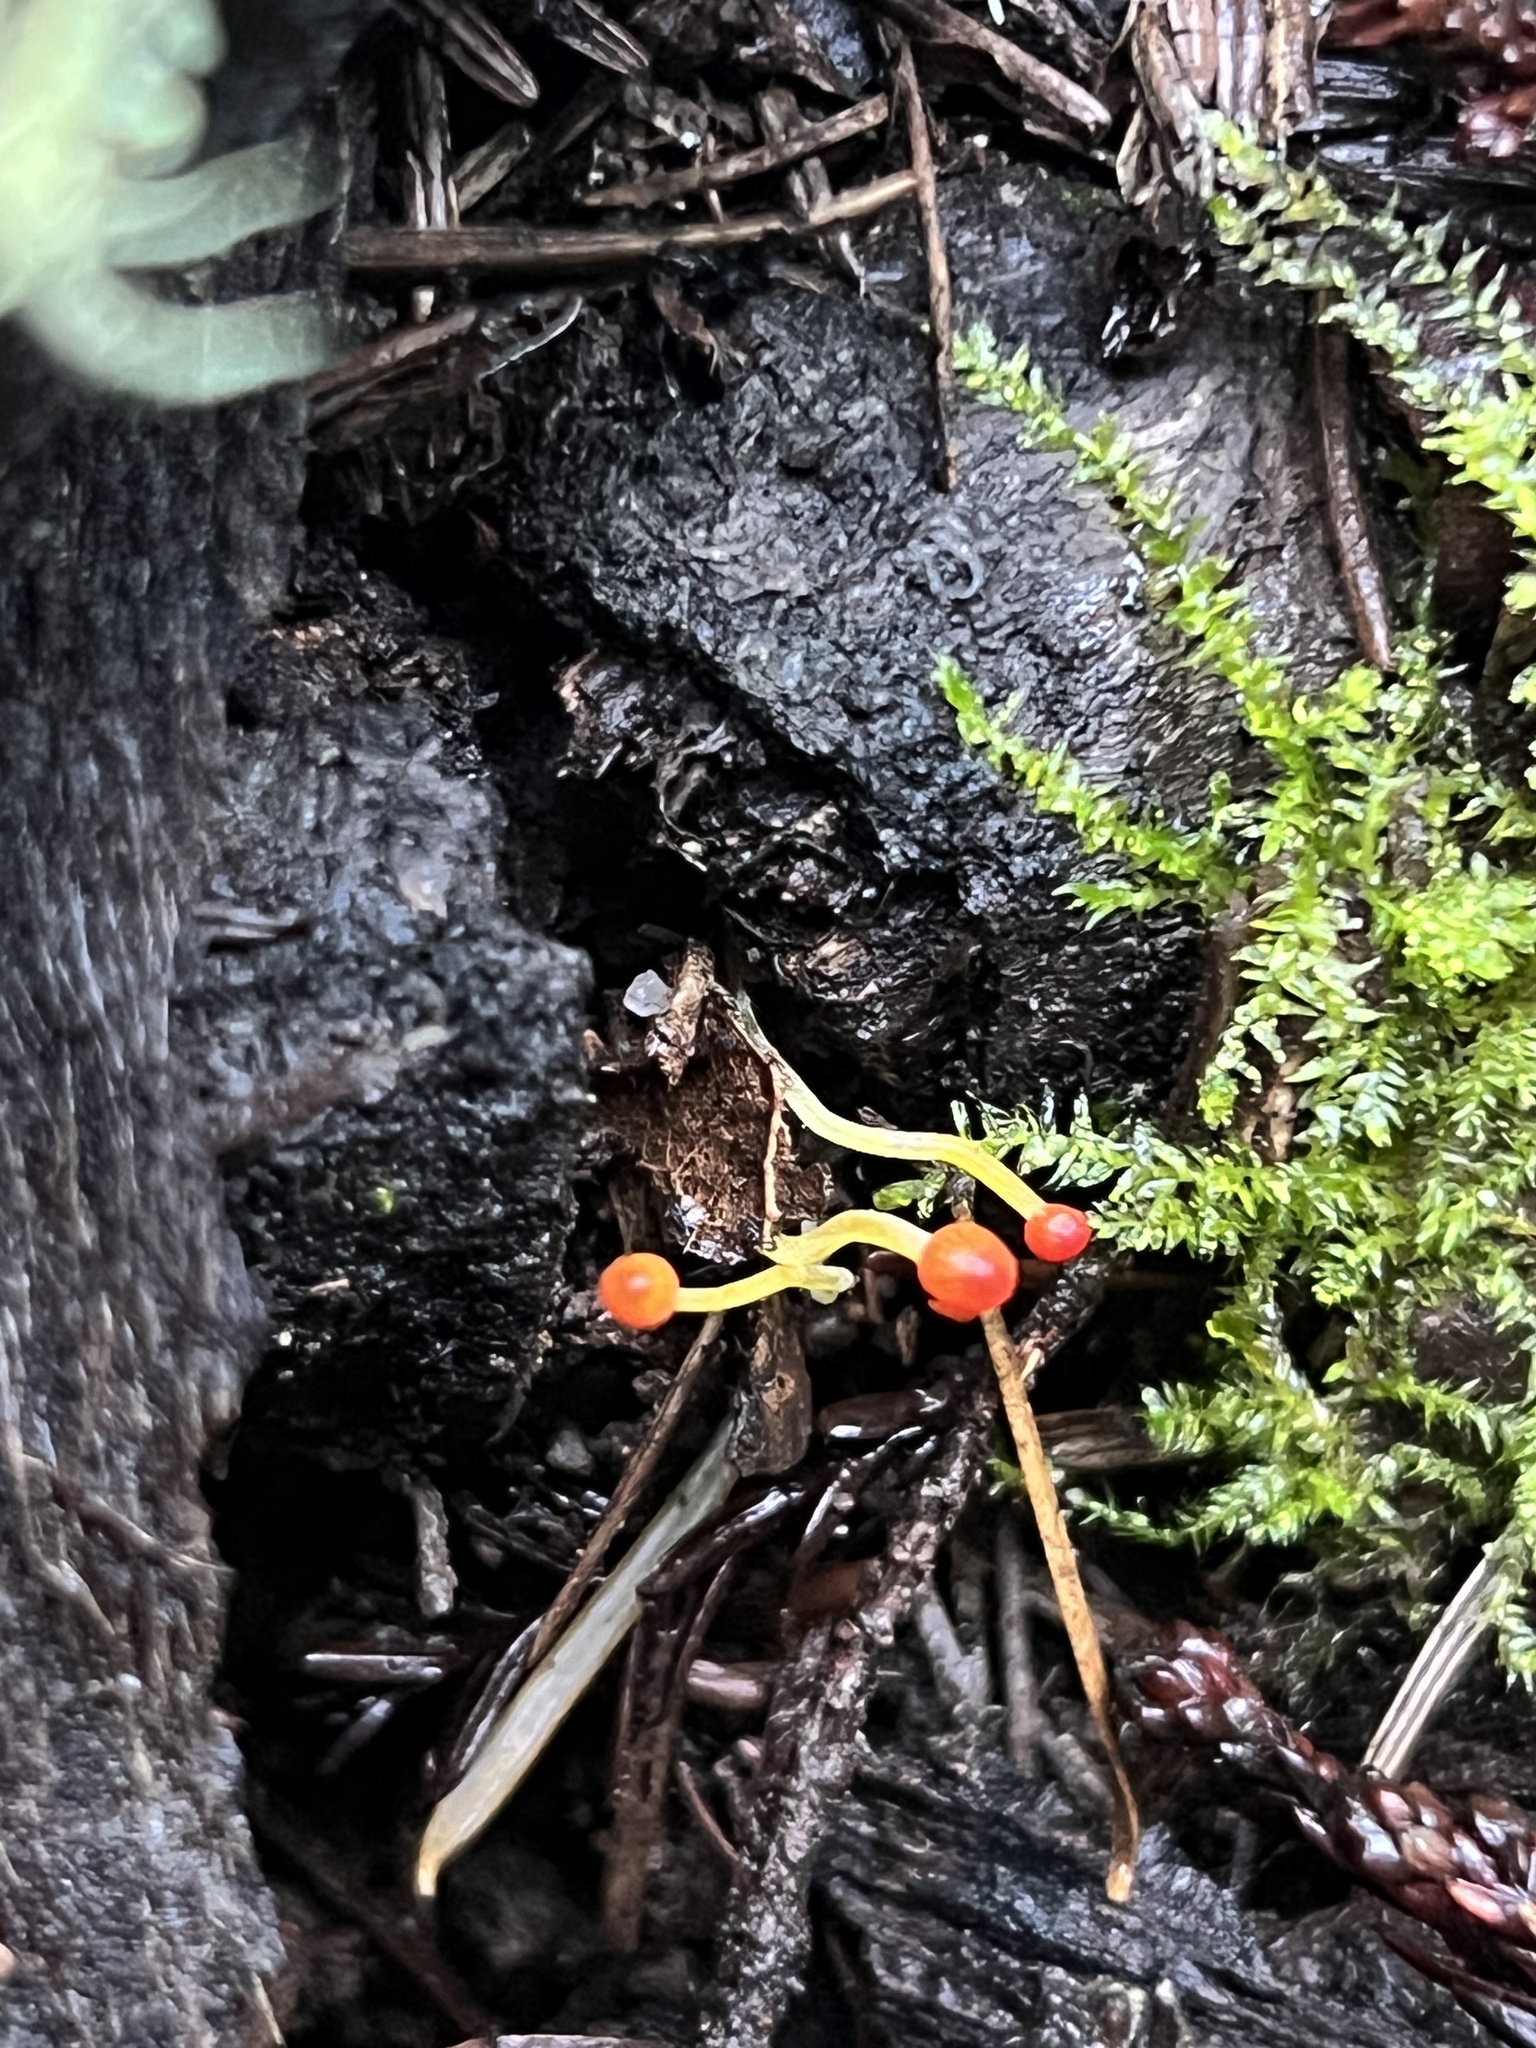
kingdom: Fungi
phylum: Basidiomycota
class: Agaricomycetes
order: Agaricales
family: Mycenaceae
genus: Mycena
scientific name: Mycena acicula
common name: Orange bonnet
